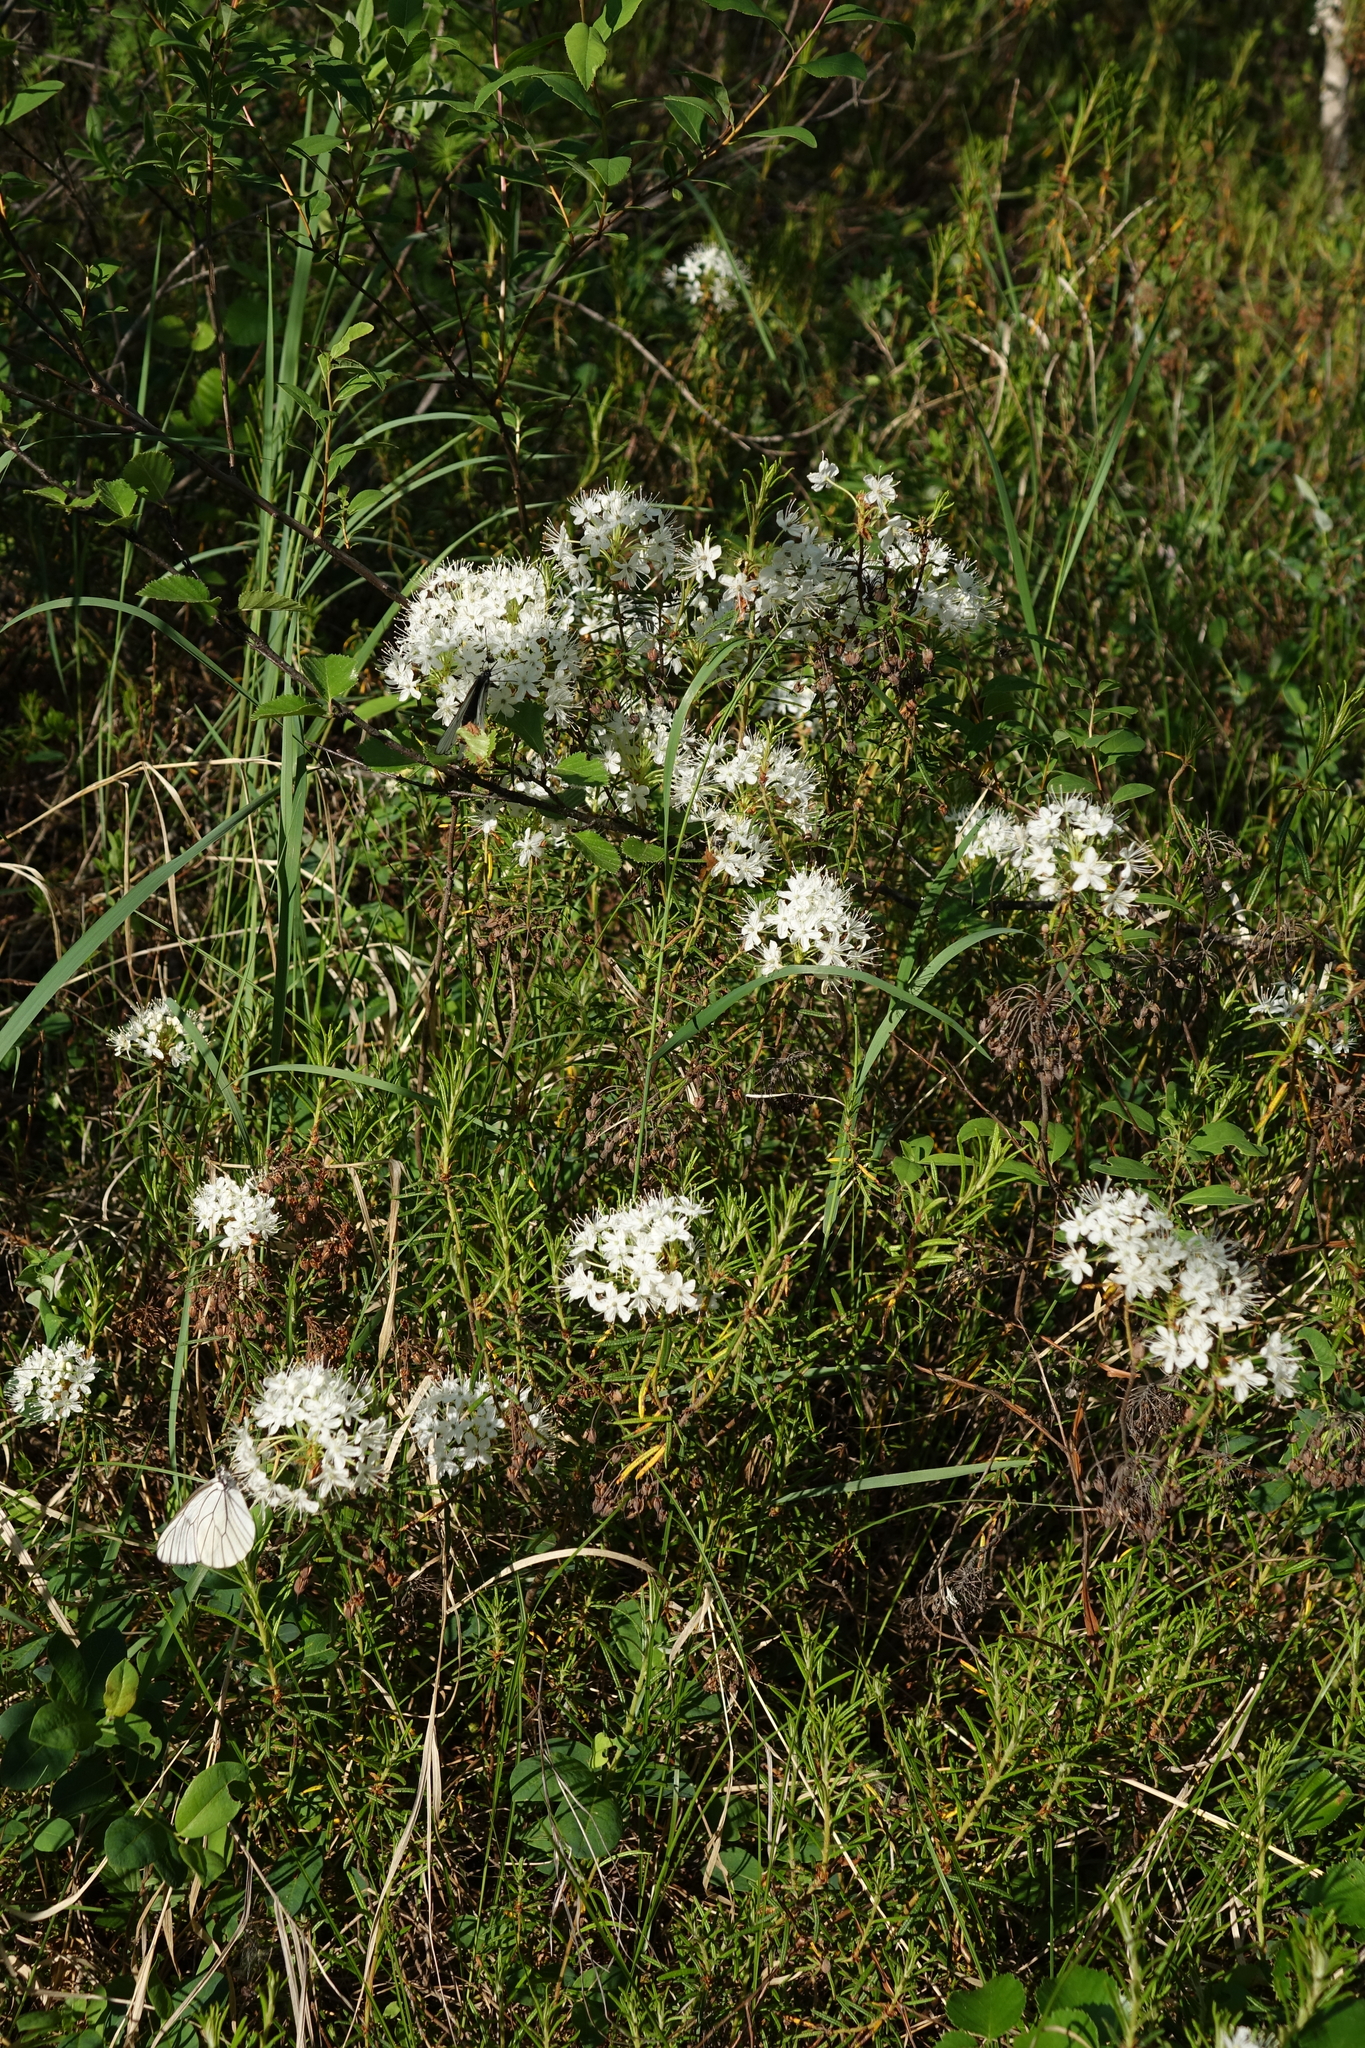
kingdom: Plantae
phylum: Tracheophyta
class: Magnoliopsida
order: Ericales
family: Ericaceae
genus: Rhododendron
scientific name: Rhododendron tomentosum
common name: Marsh labrador tea
